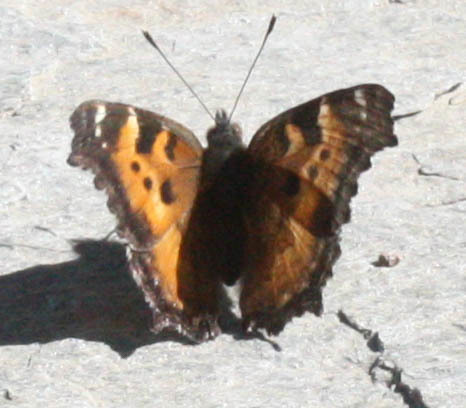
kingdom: Animalia
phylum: Arthropoda
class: Insecta
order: Lepidoptera
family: Nymphalidae
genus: Nymphalis
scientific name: Nymphalis californica
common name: California tortoiseshell
